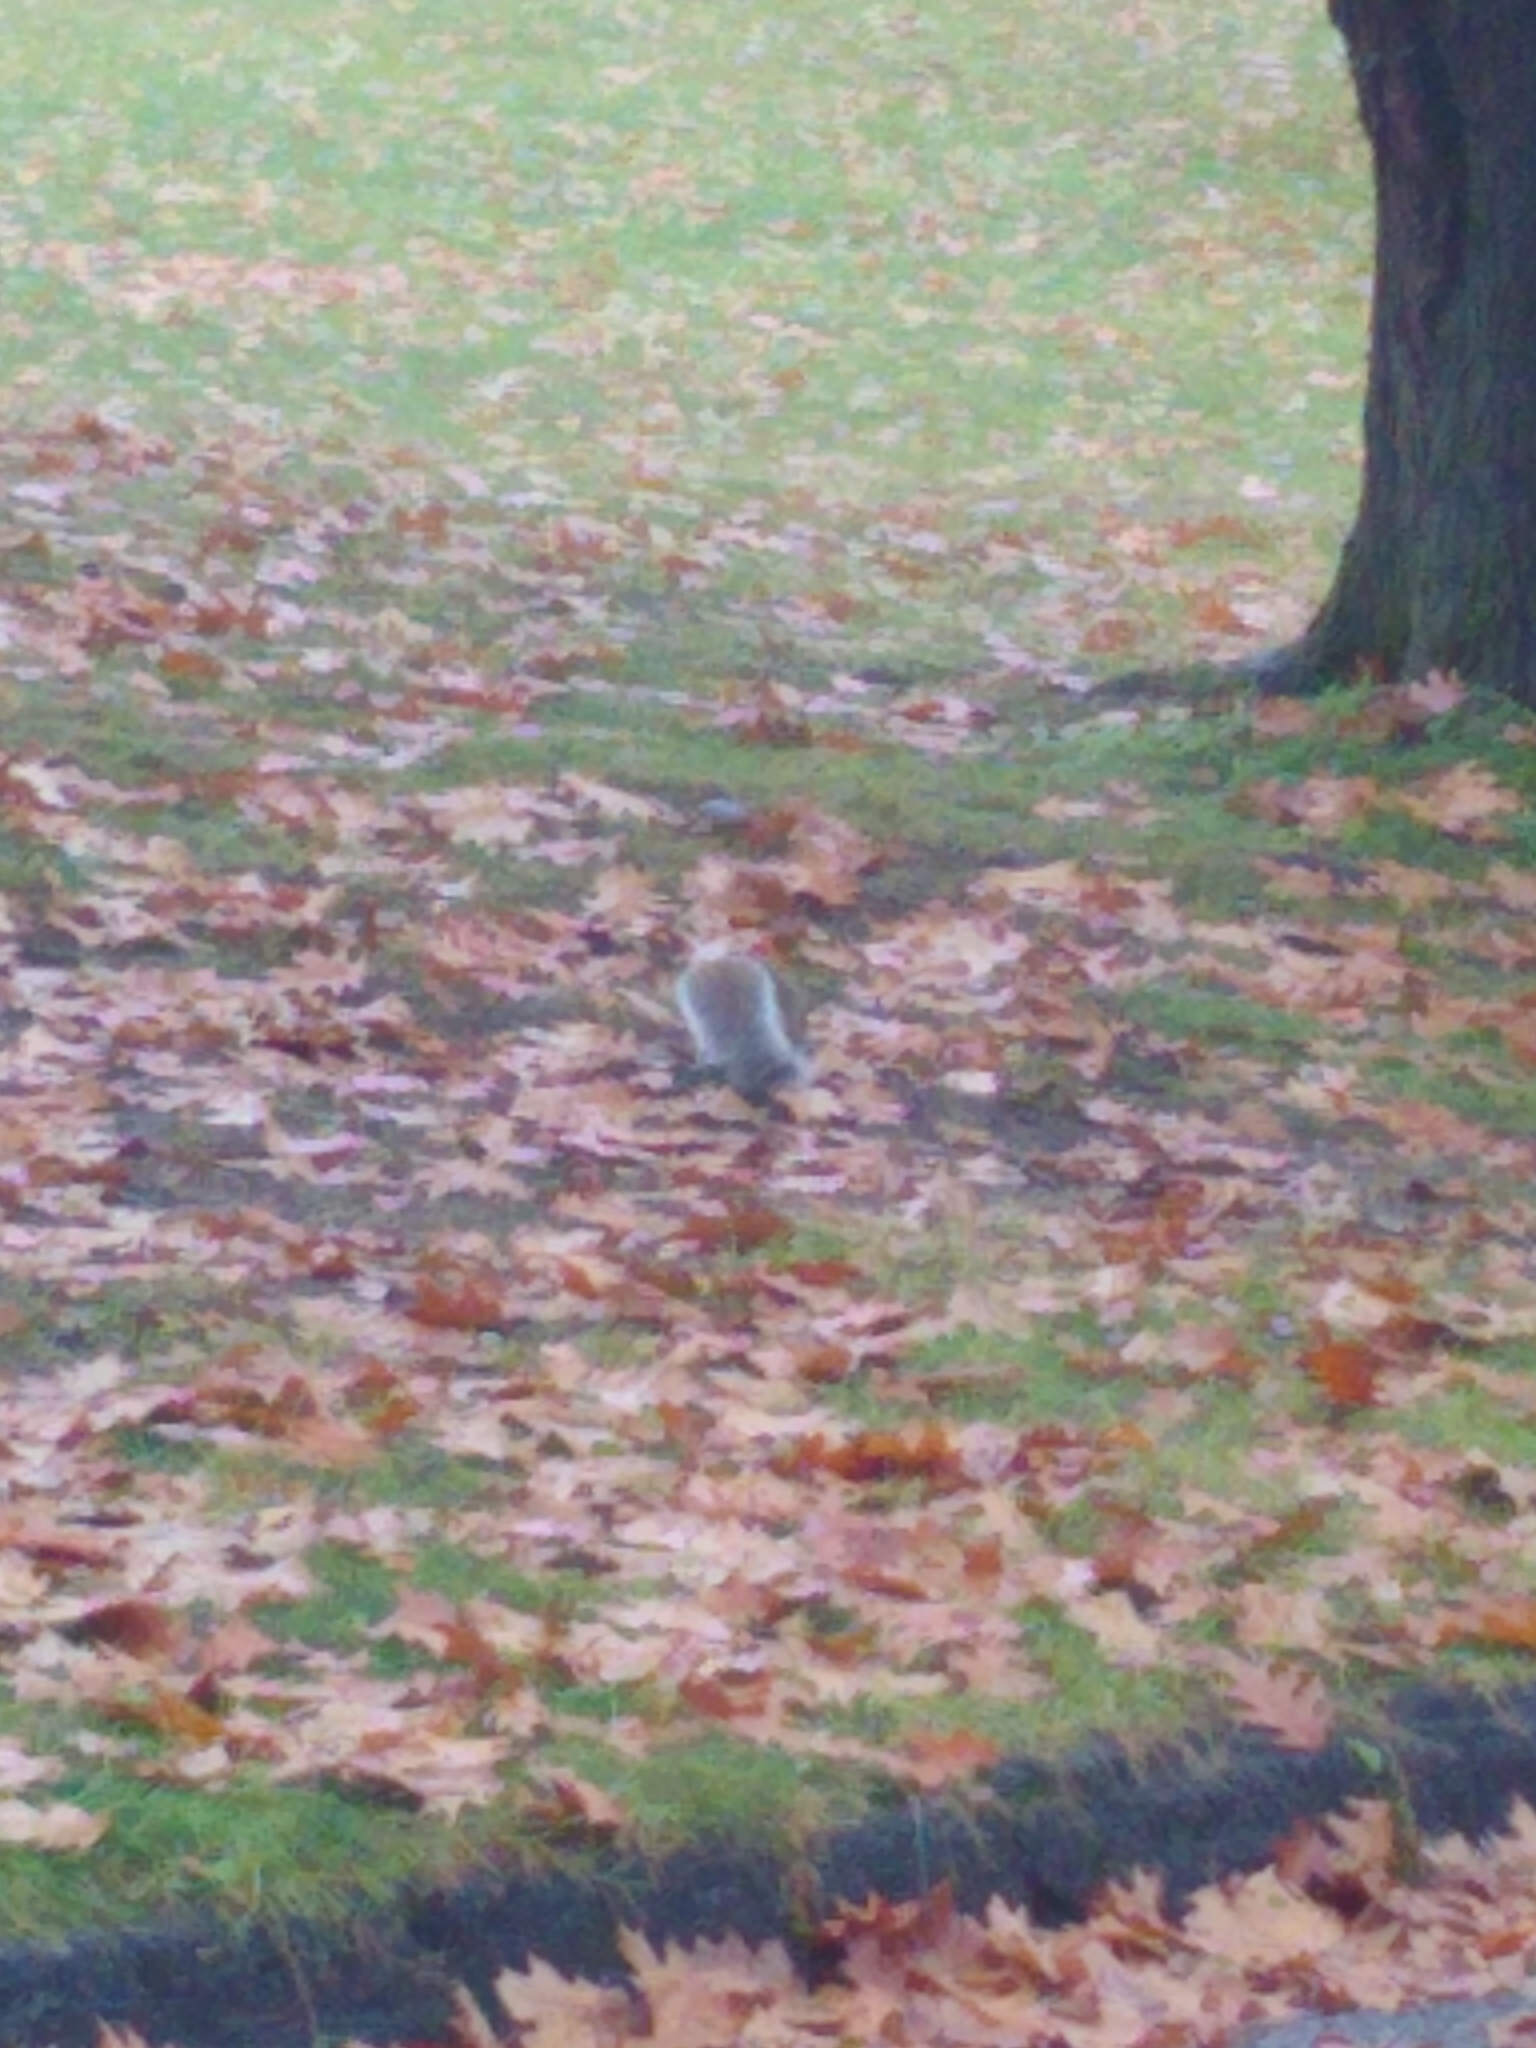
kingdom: Animalia
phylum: Chordata
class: Mammalia
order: Rodentia
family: Sciuridae
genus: Sciurus
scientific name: Sciurus carolinensis
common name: Eastern gray squirrel
